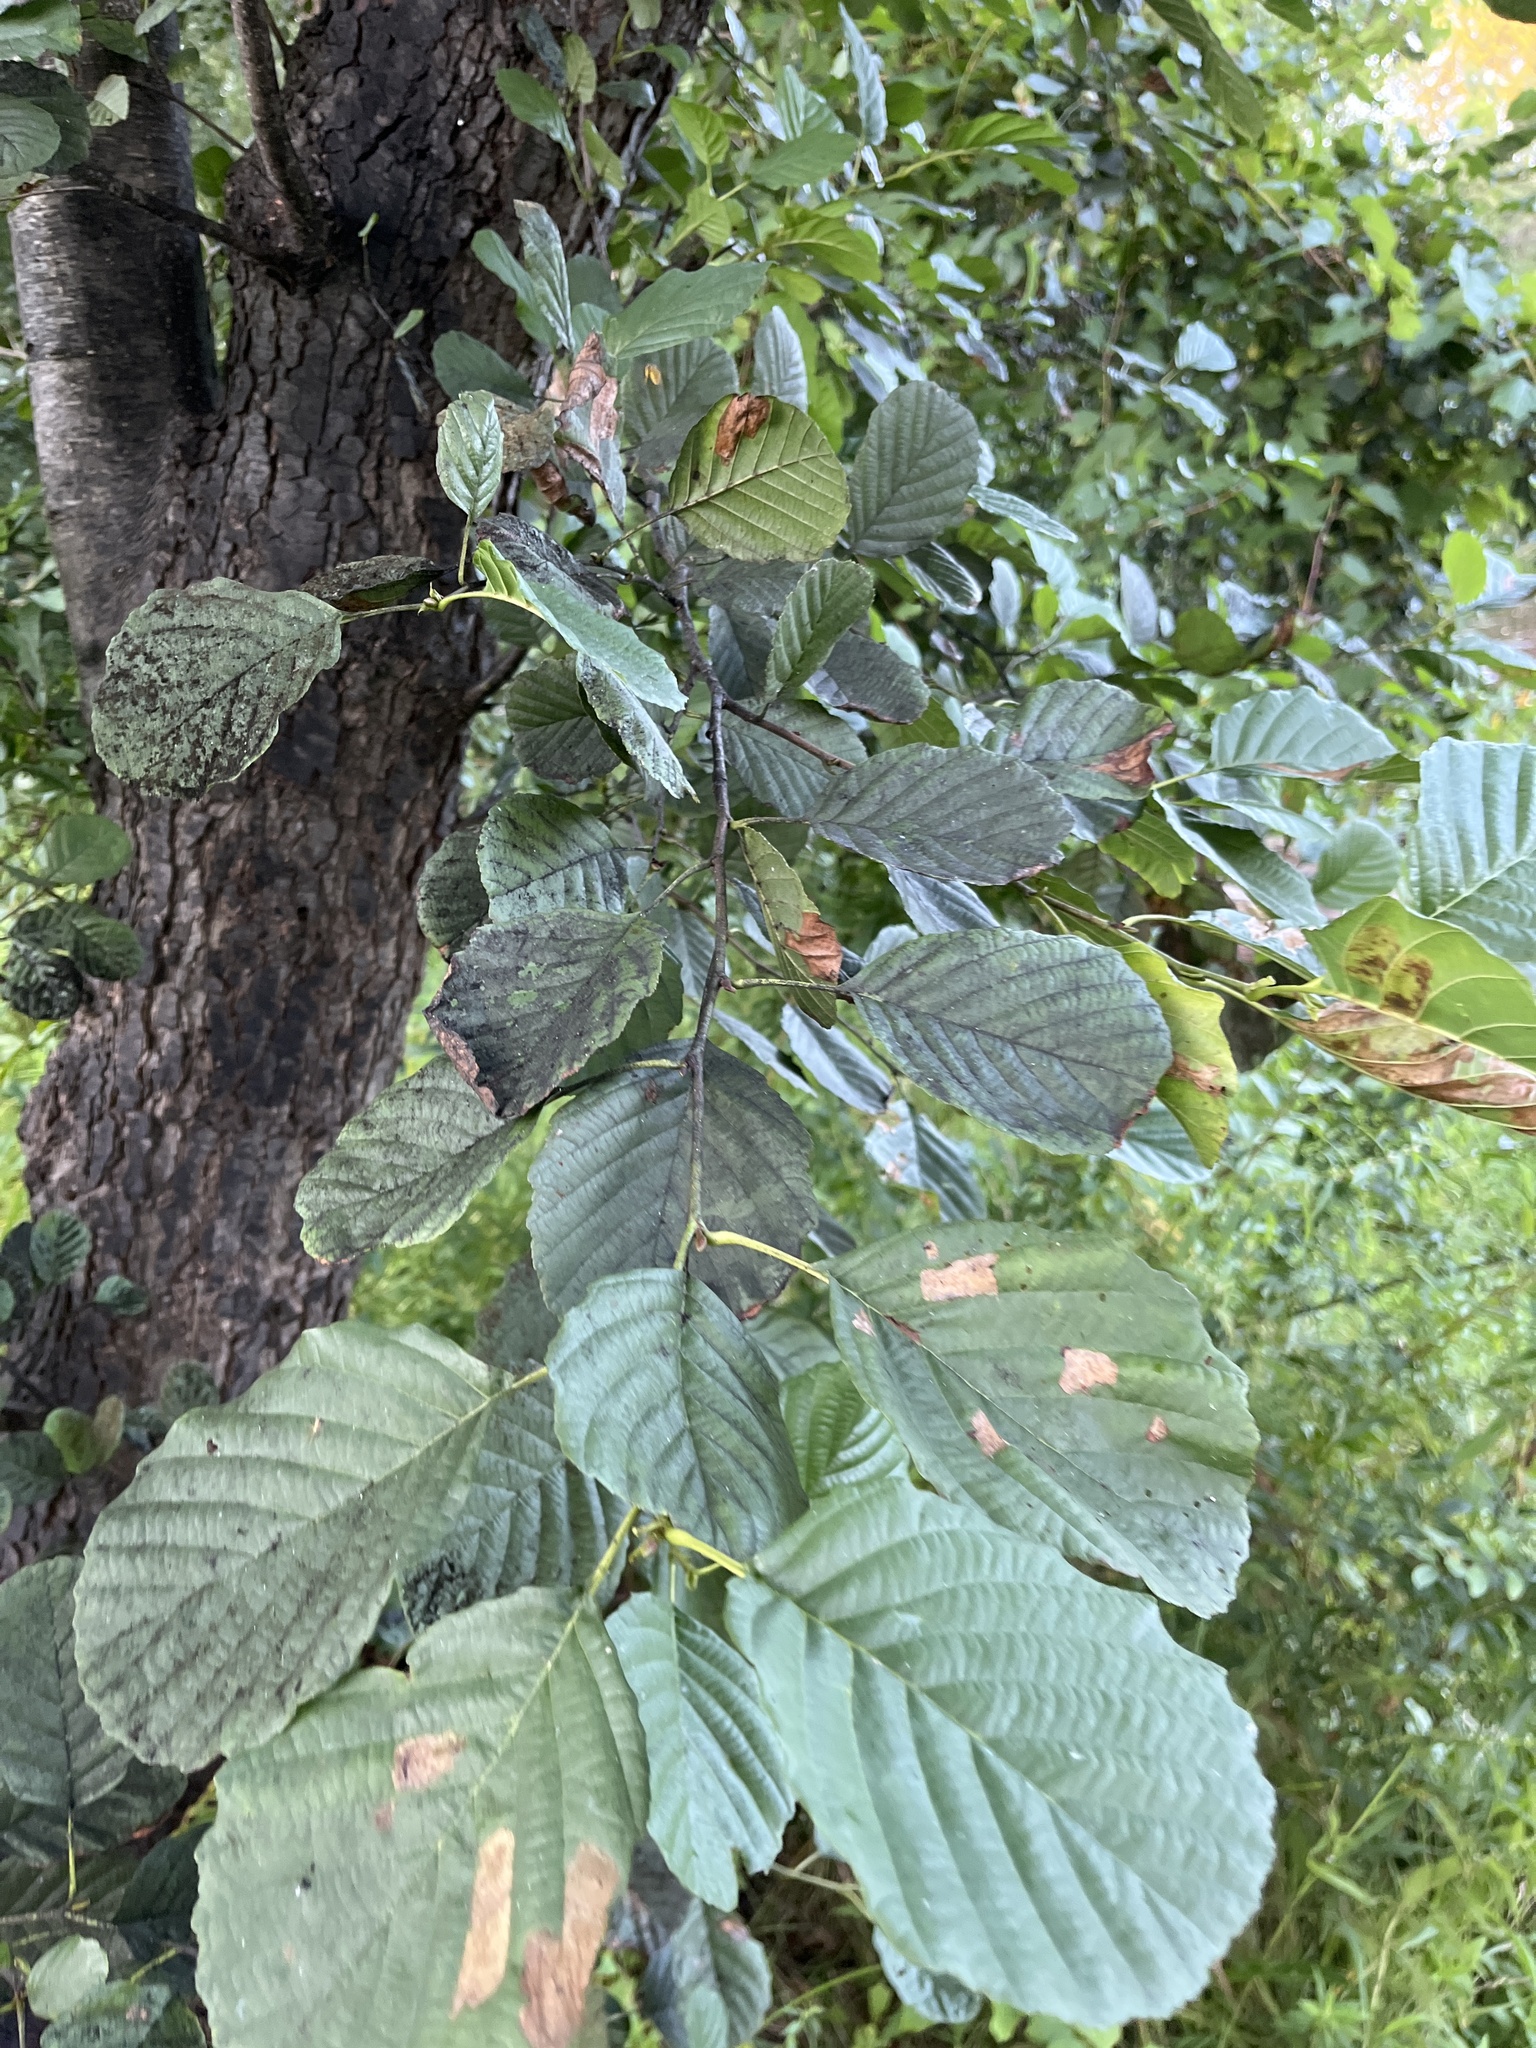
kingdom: Plantae
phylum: Tracheophyta
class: Magnoliopsida
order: Fagales
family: Betulaceae
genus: Alnus
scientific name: Alnus glutinosa
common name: Black alder
